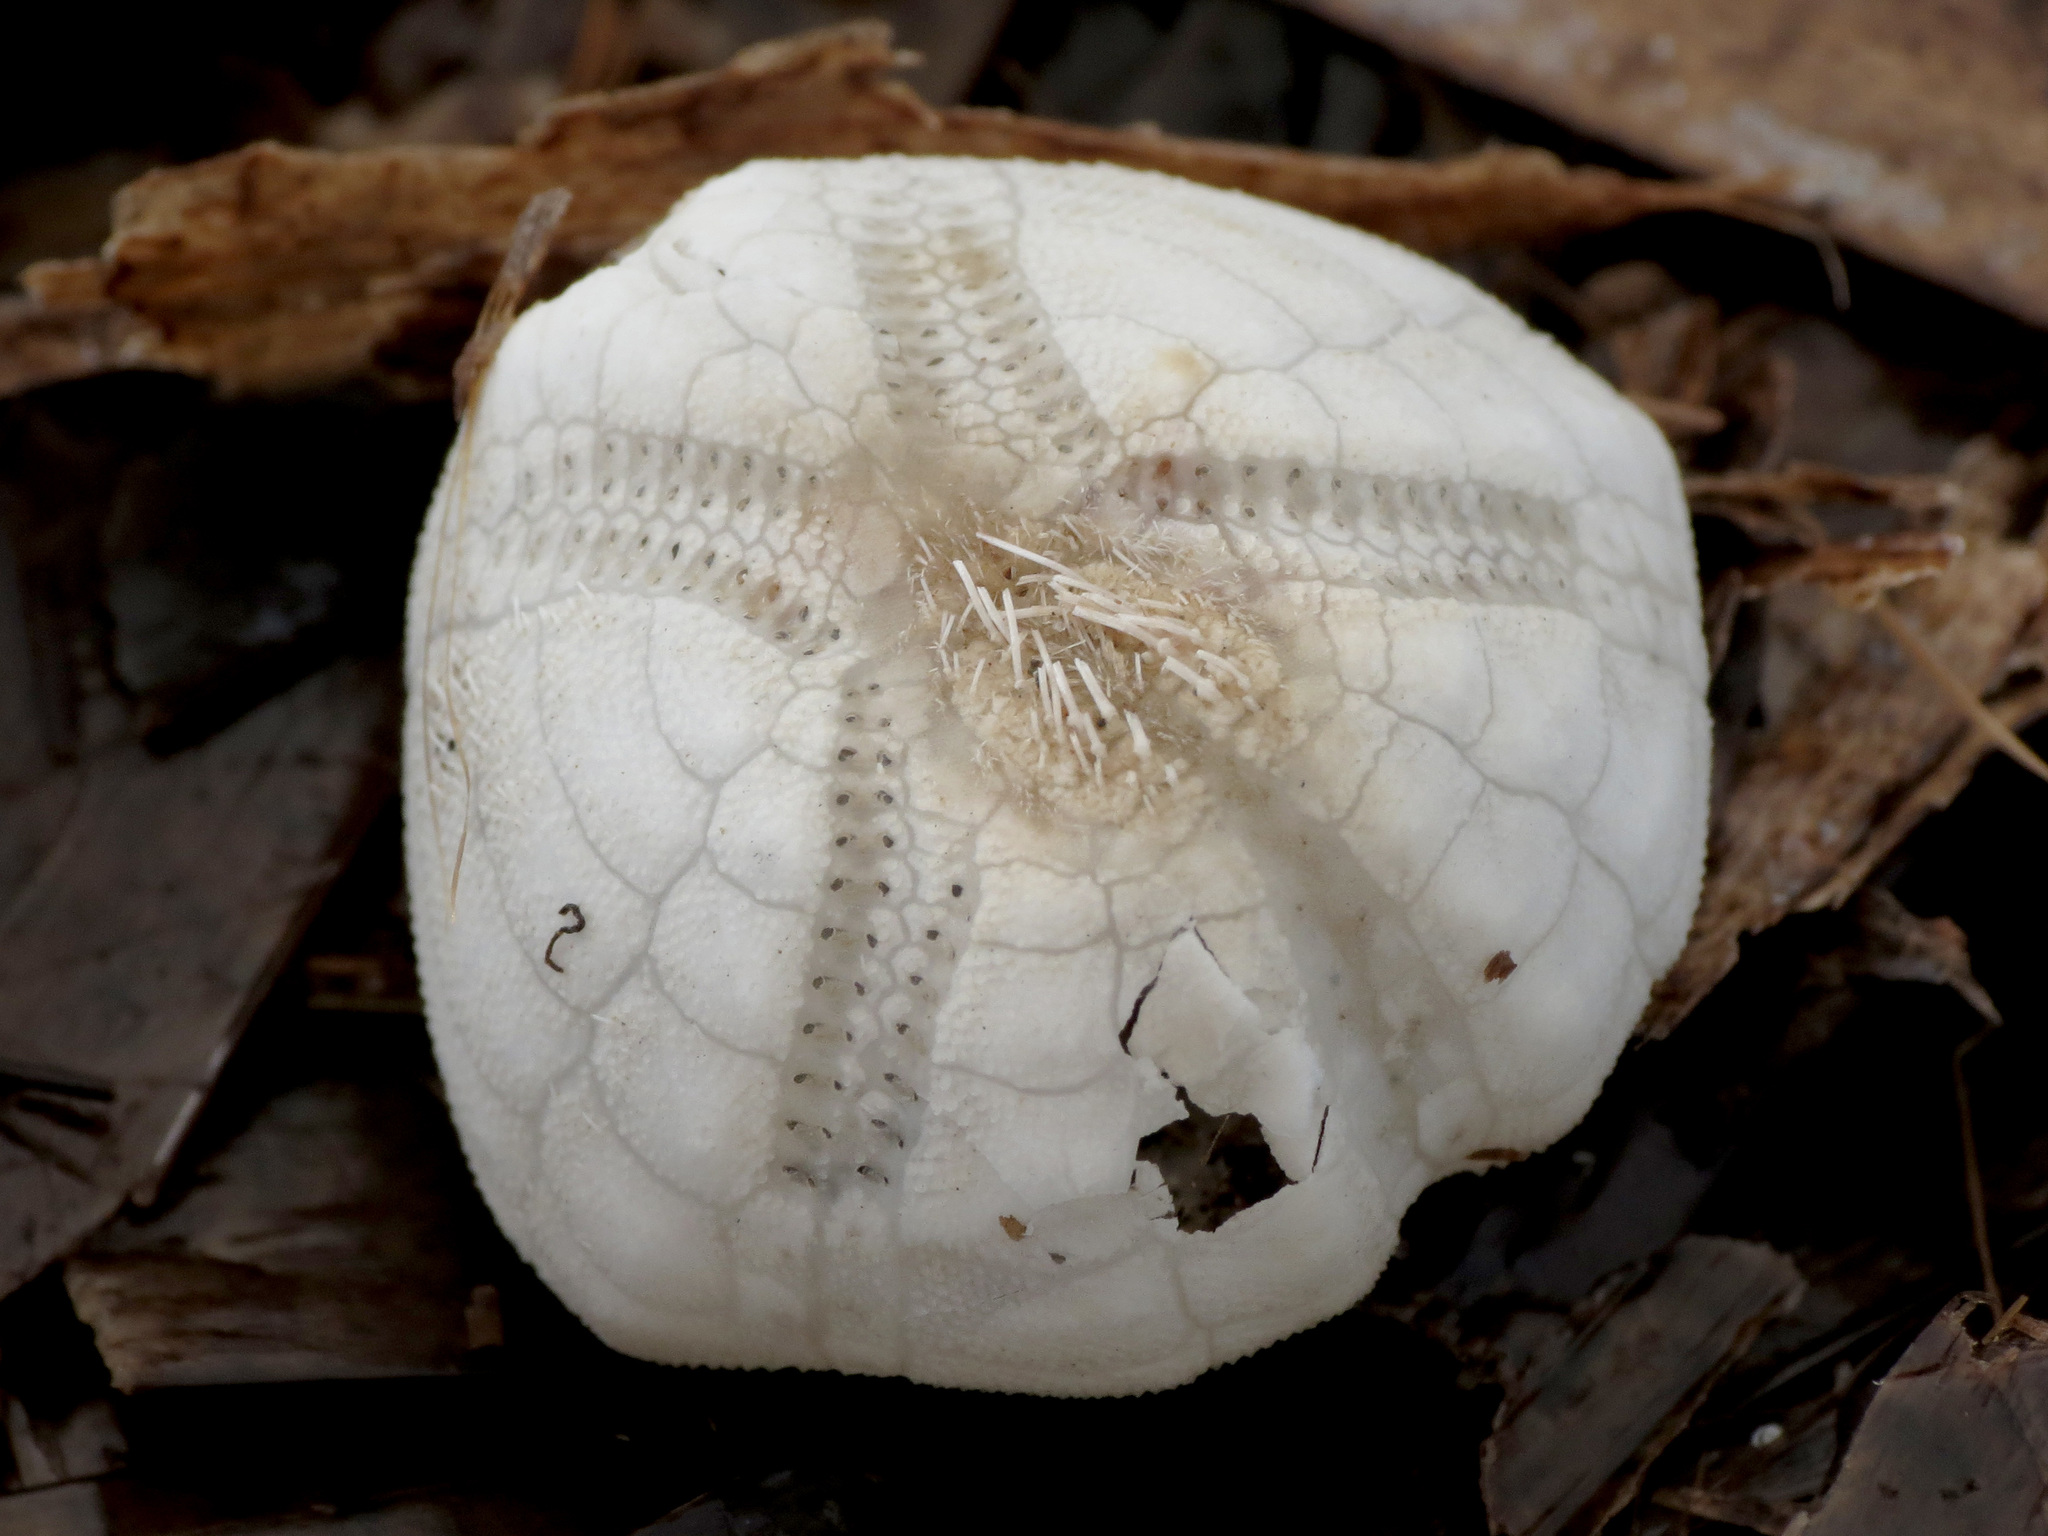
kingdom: Animalia
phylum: Echinodermata
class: Echinoidea
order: Spatangoida
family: Loveniidae
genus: Echinocardium
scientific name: Echinocardium mediterraneum
